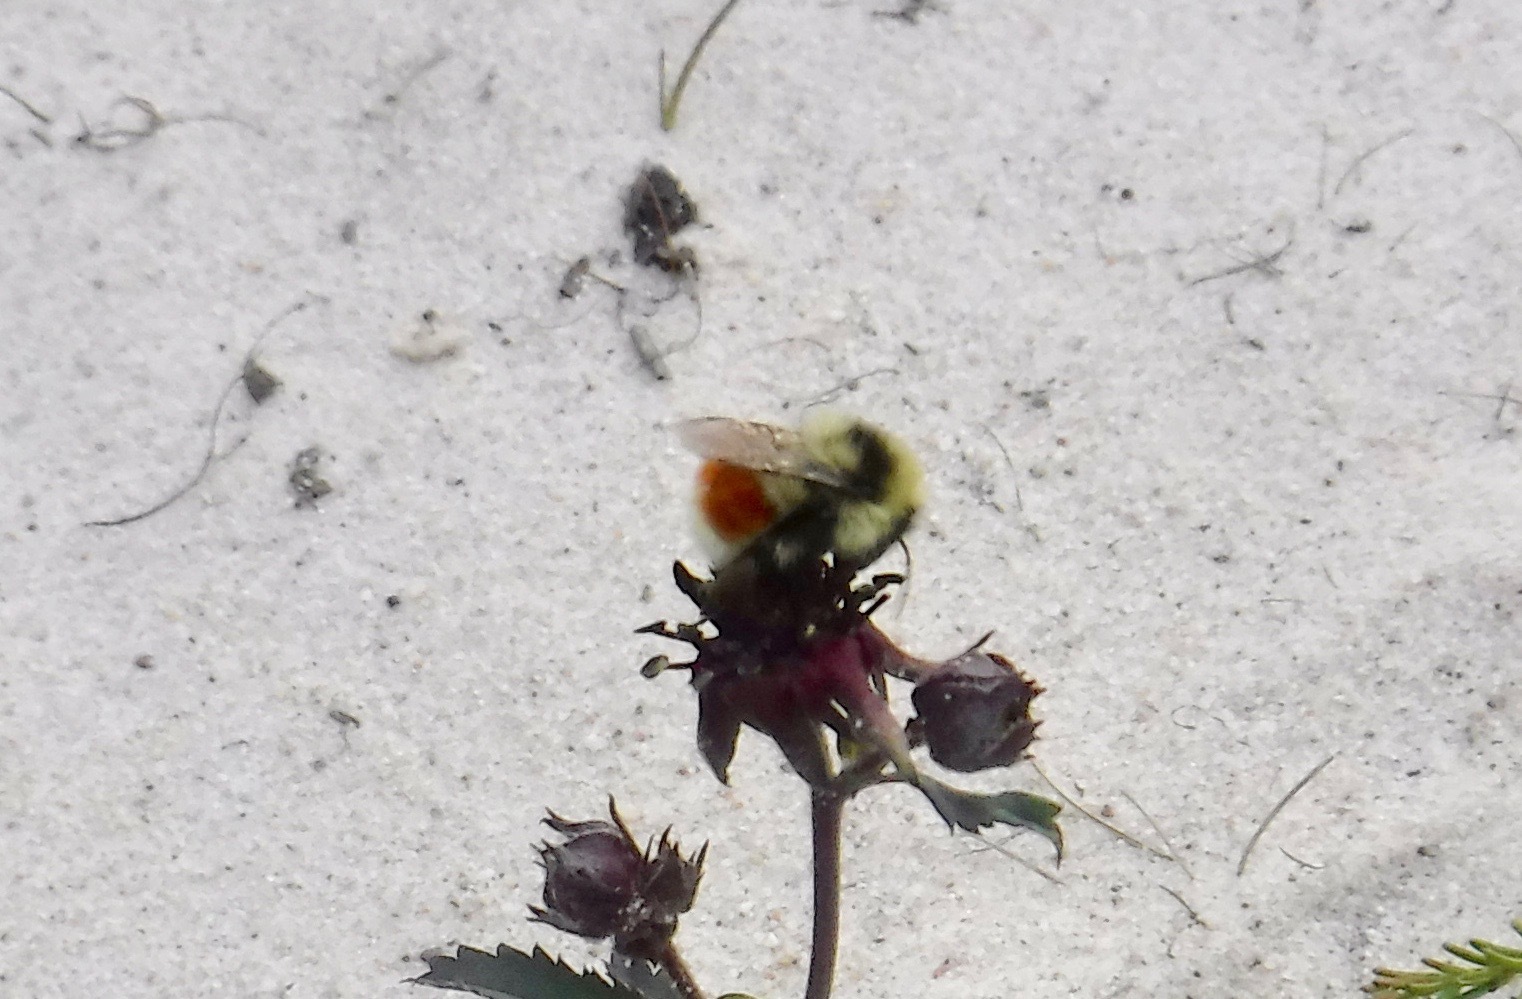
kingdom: Animalia
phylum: Arthropoda
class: Insecta
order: Hymenoptera
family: Apidae
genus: Bombus
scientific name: Bombus sylvicola
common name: Forest bumble bee
